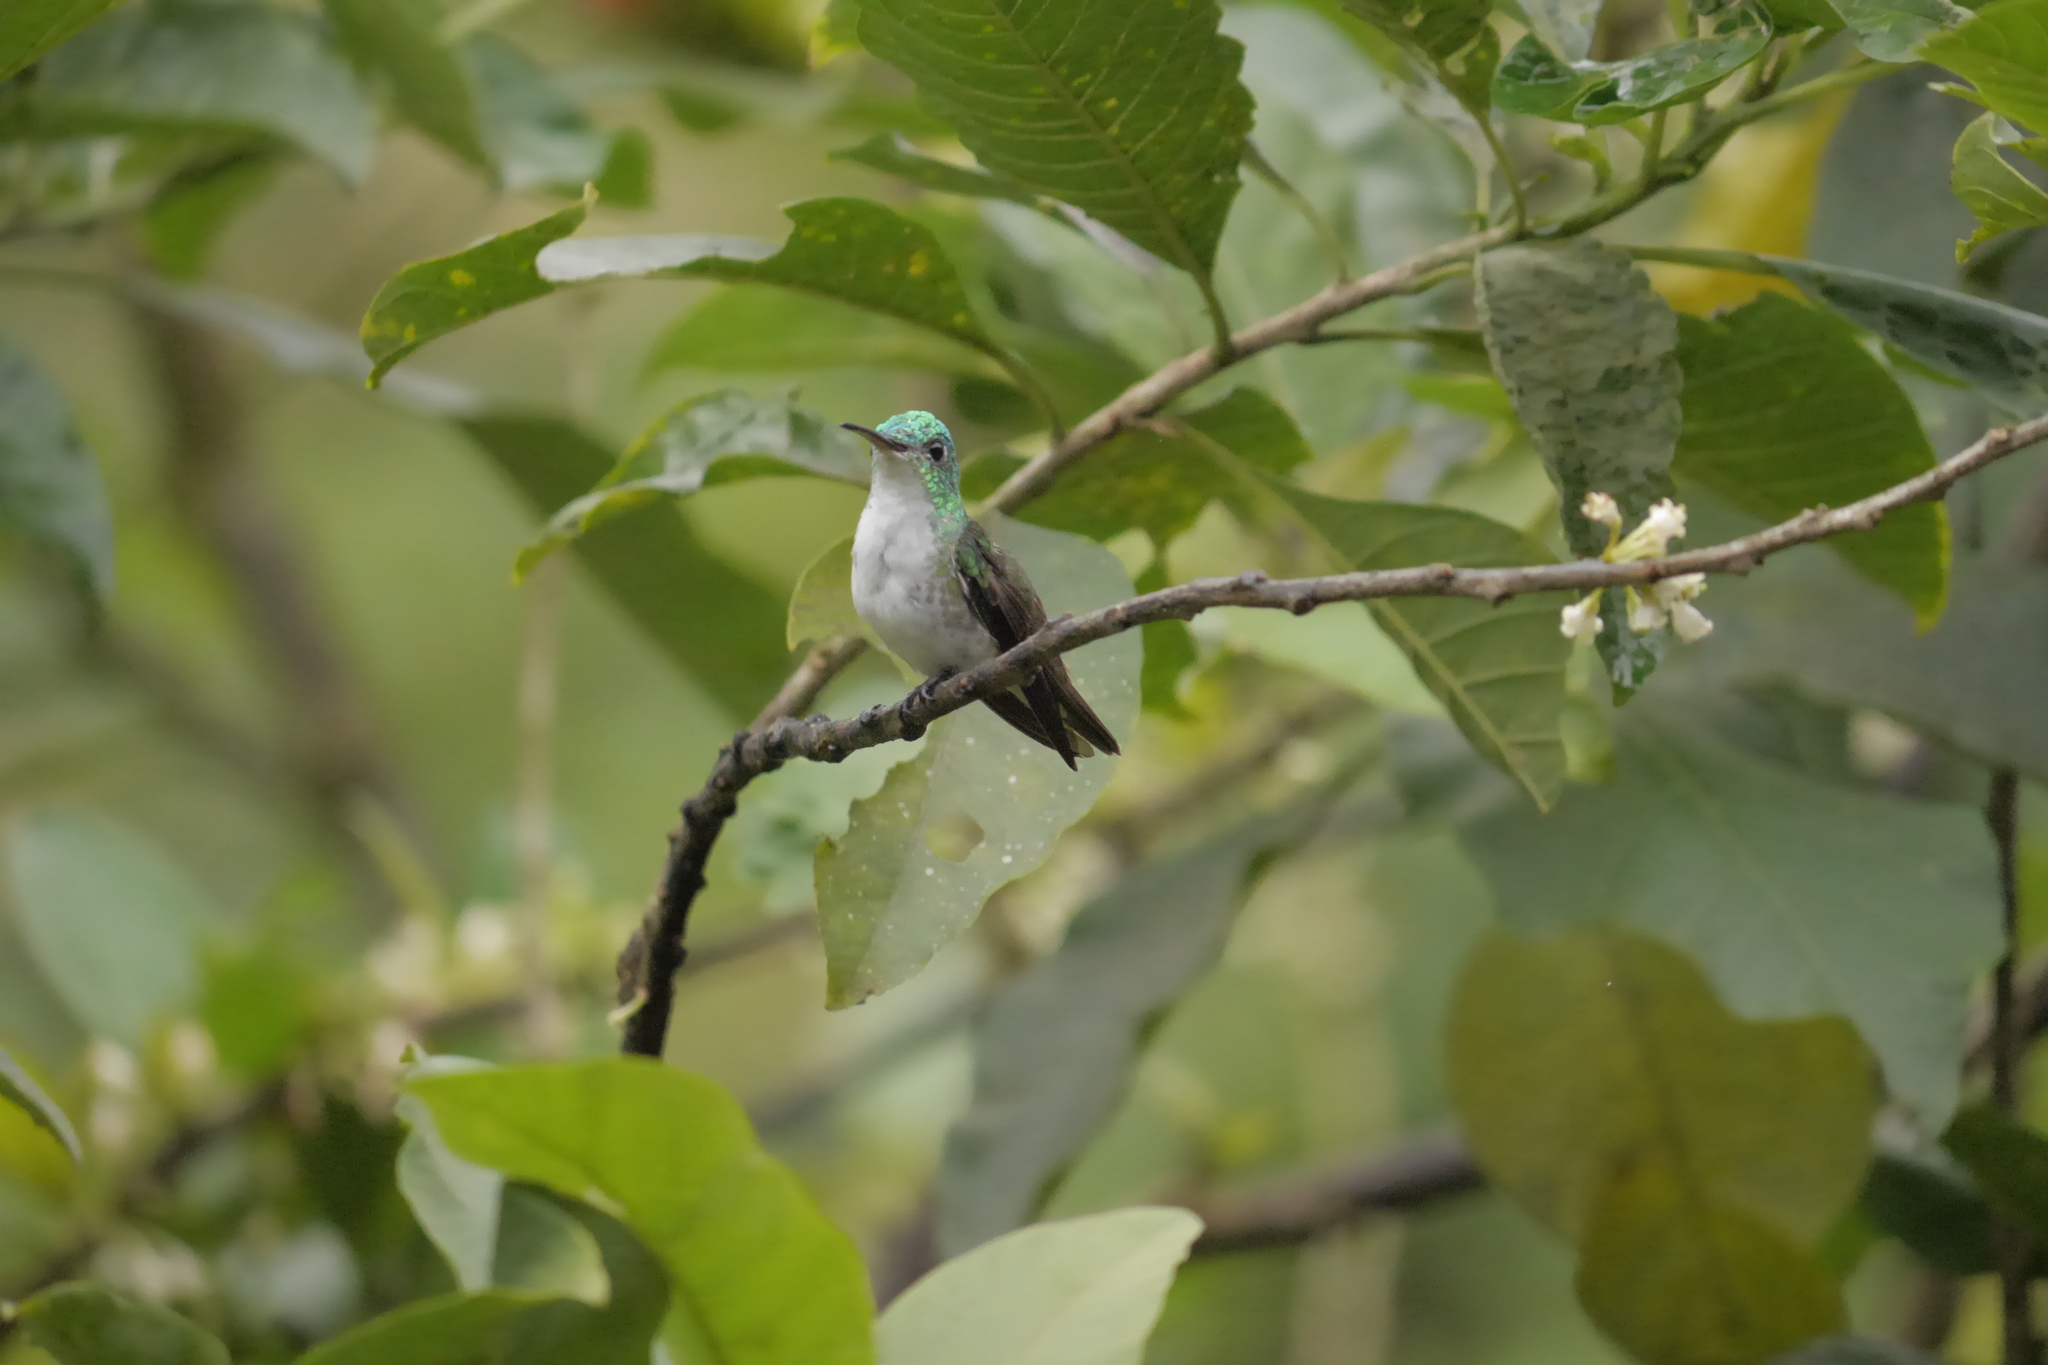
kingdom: Animalia
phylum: Chordata
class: Aves
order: Apodiformes
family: Trochilidae
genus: Uranomitra
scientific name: Uranomitra franciae
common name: Andean emerald
